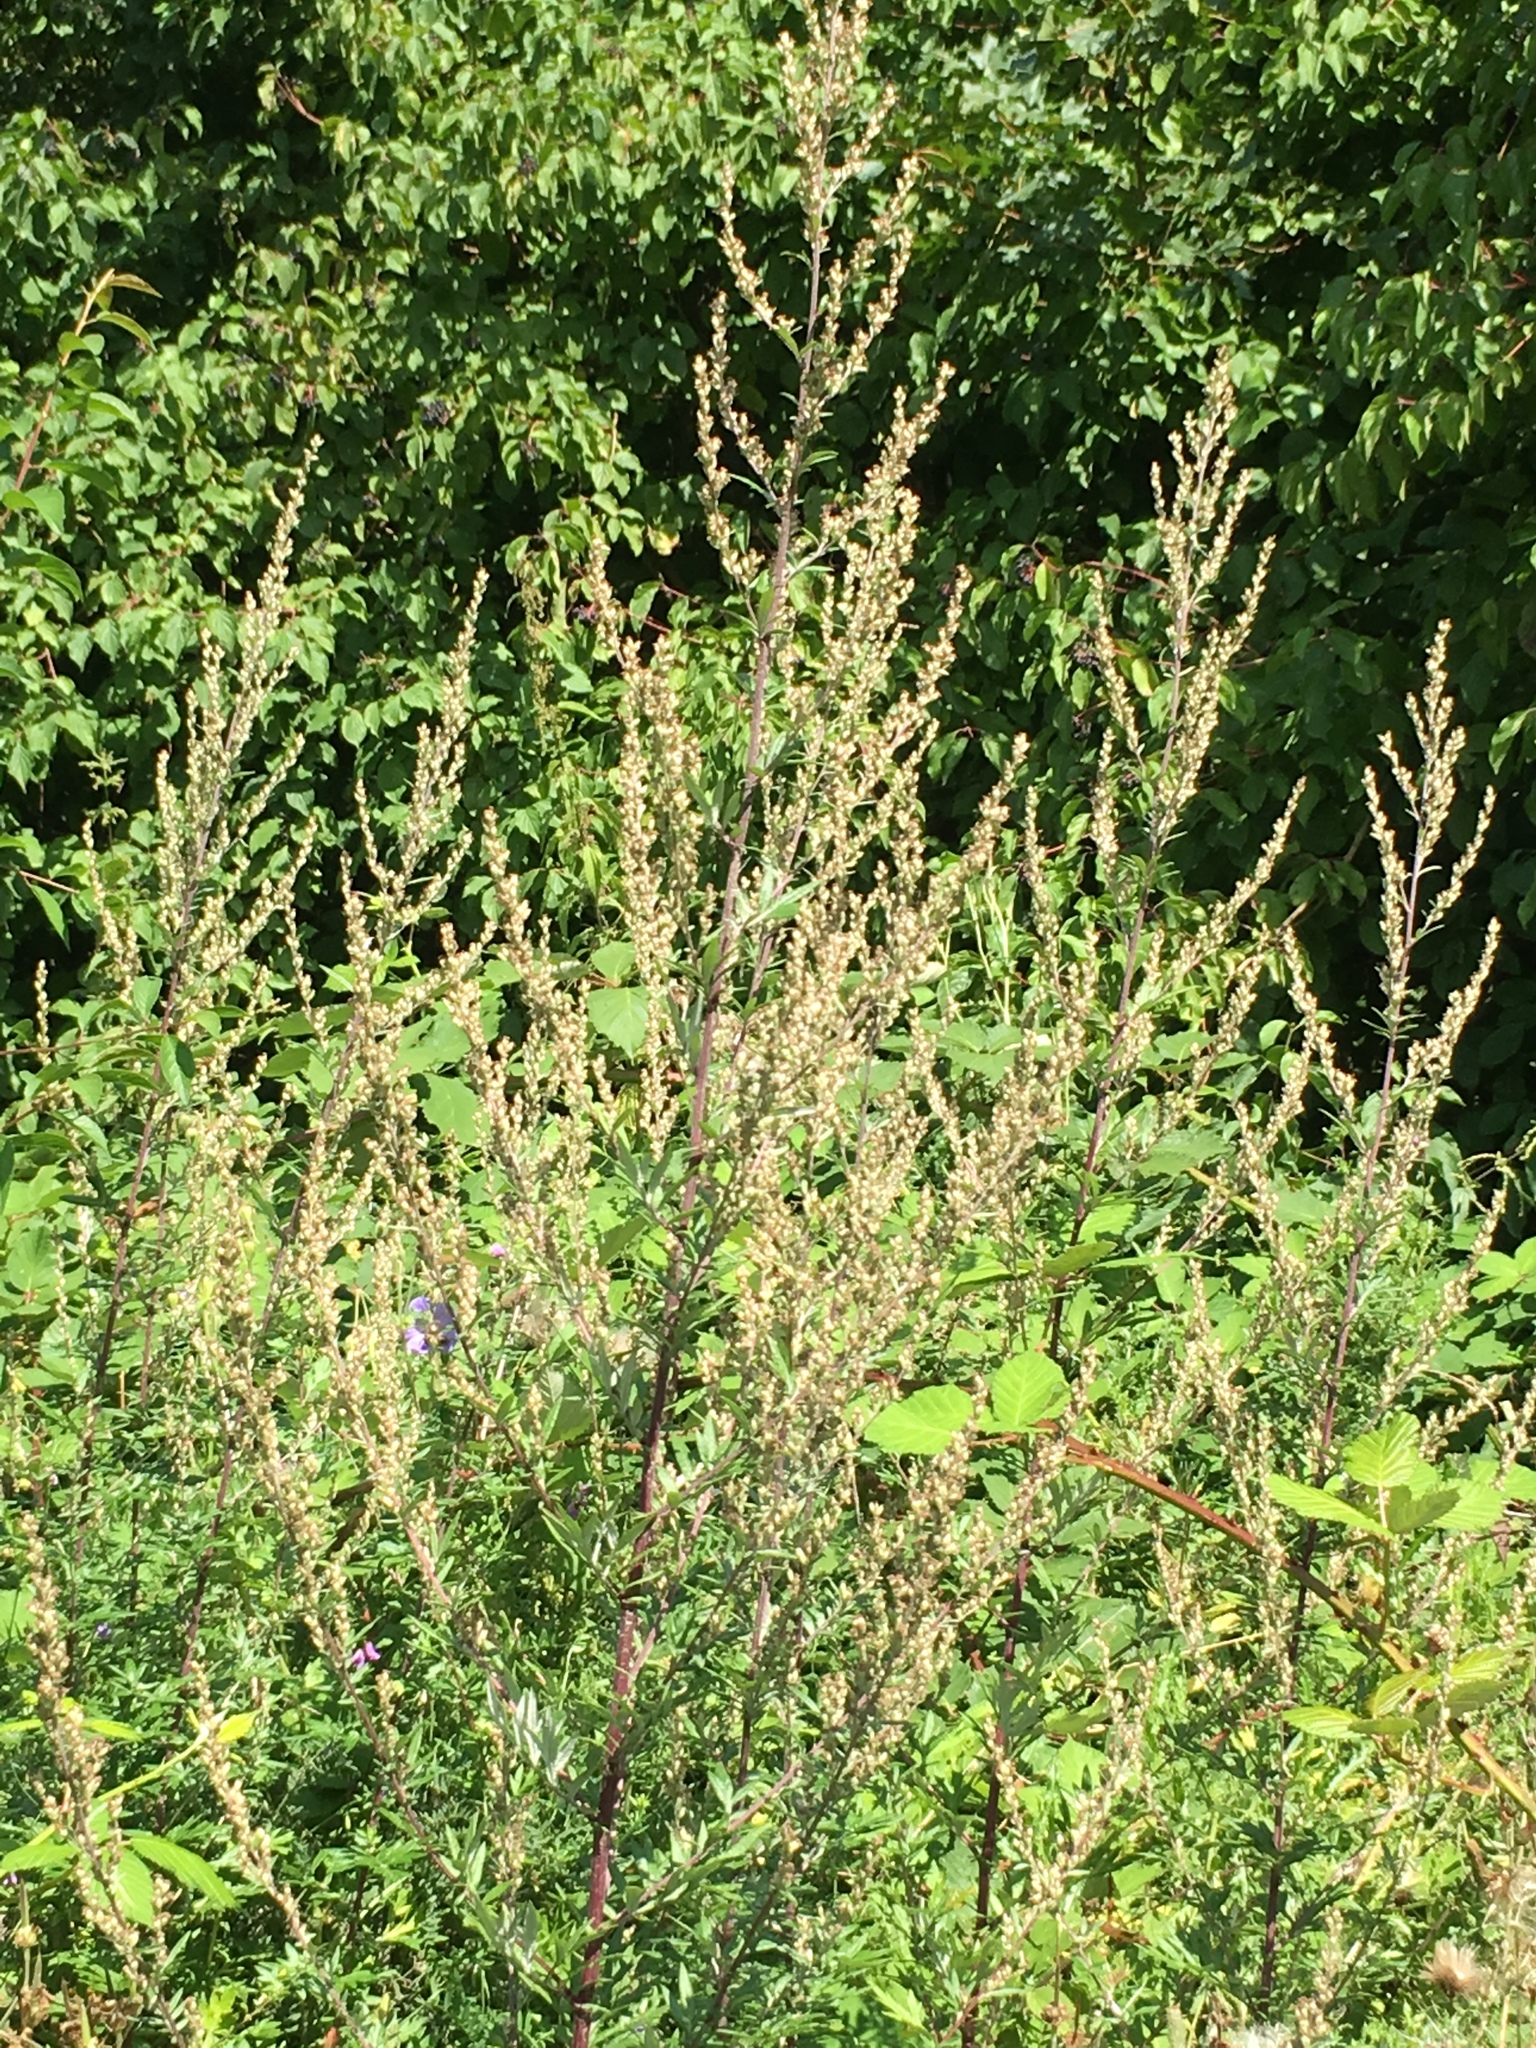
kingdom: Plantae
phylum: Tracheophyta
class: Magnoliopsida
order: Asterales
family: Asteraceae
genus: Artemisia
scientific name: Artemisia vulgaris
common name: Mugwort
